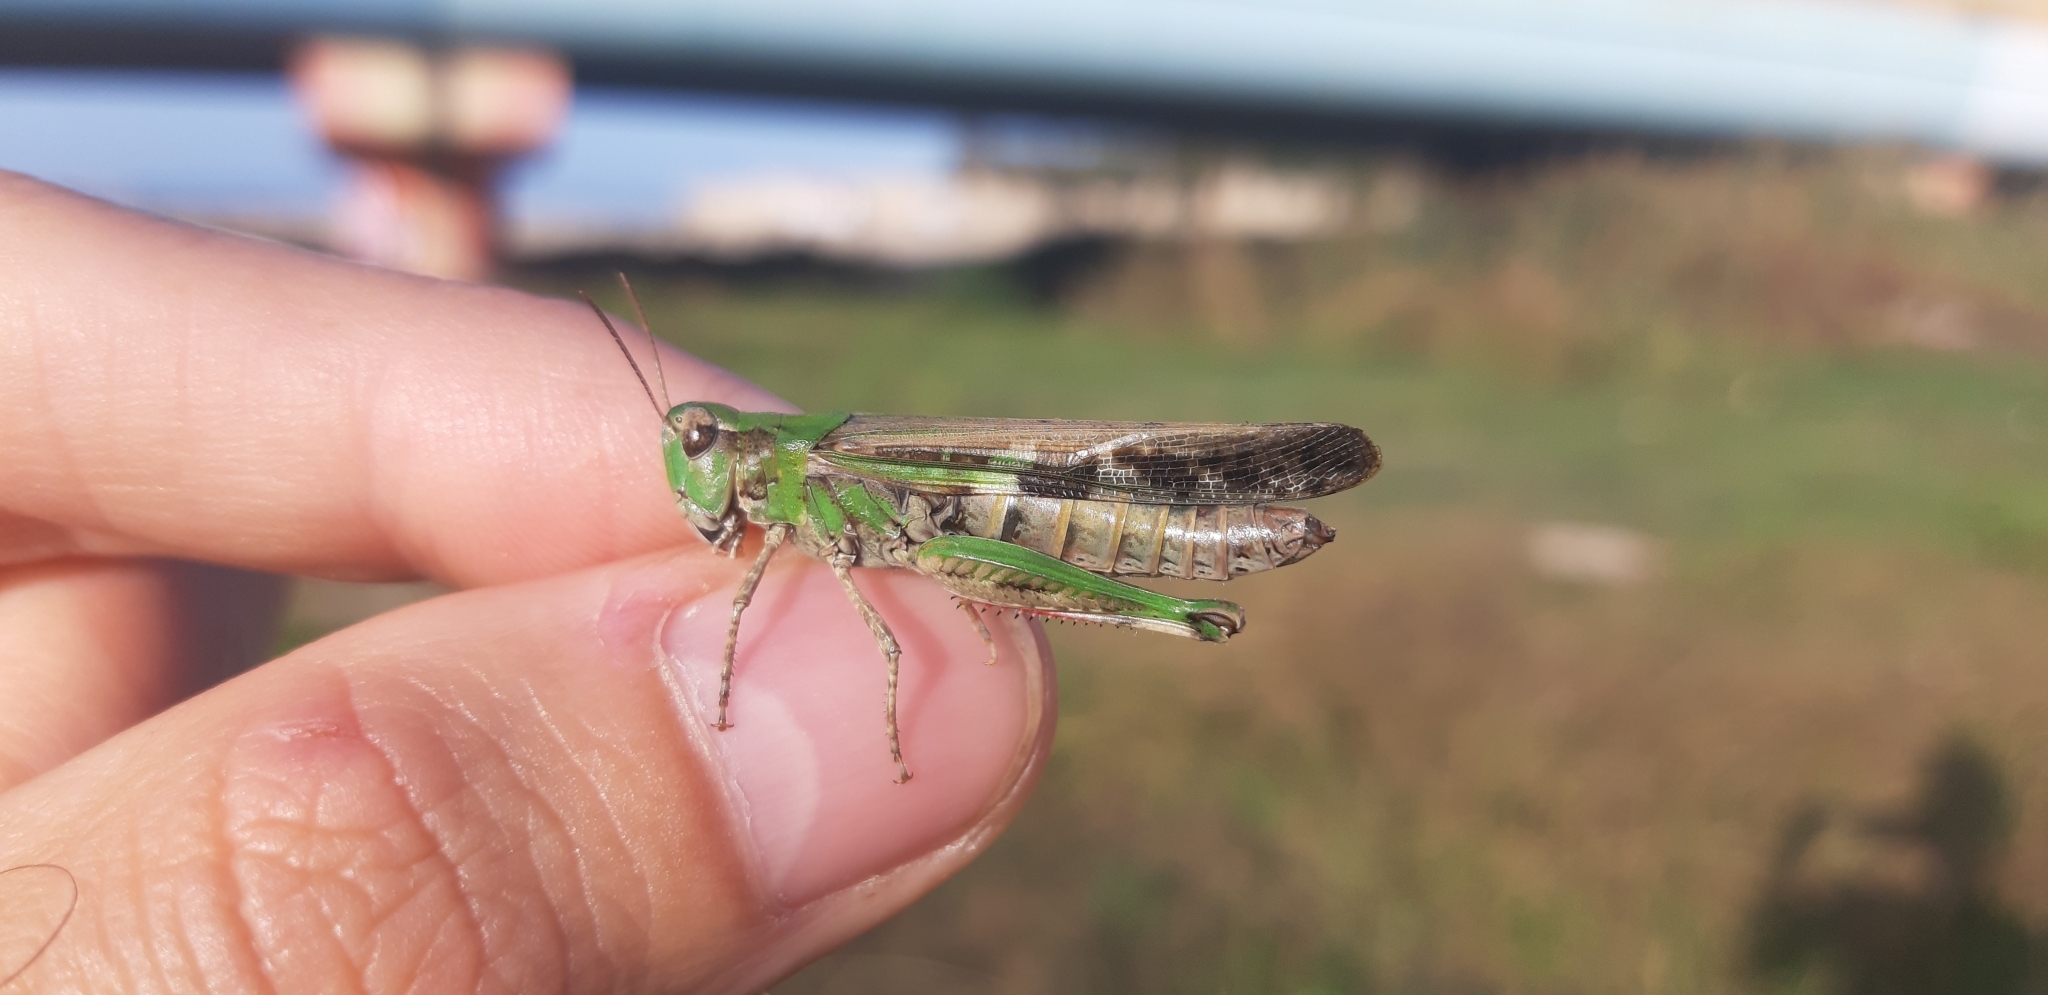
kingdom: Animalia
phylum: Arthropoda
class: Insecta
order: Orthoptera
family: Acrididae
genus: Aiolopus
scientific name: Aiolopus thalassinus
